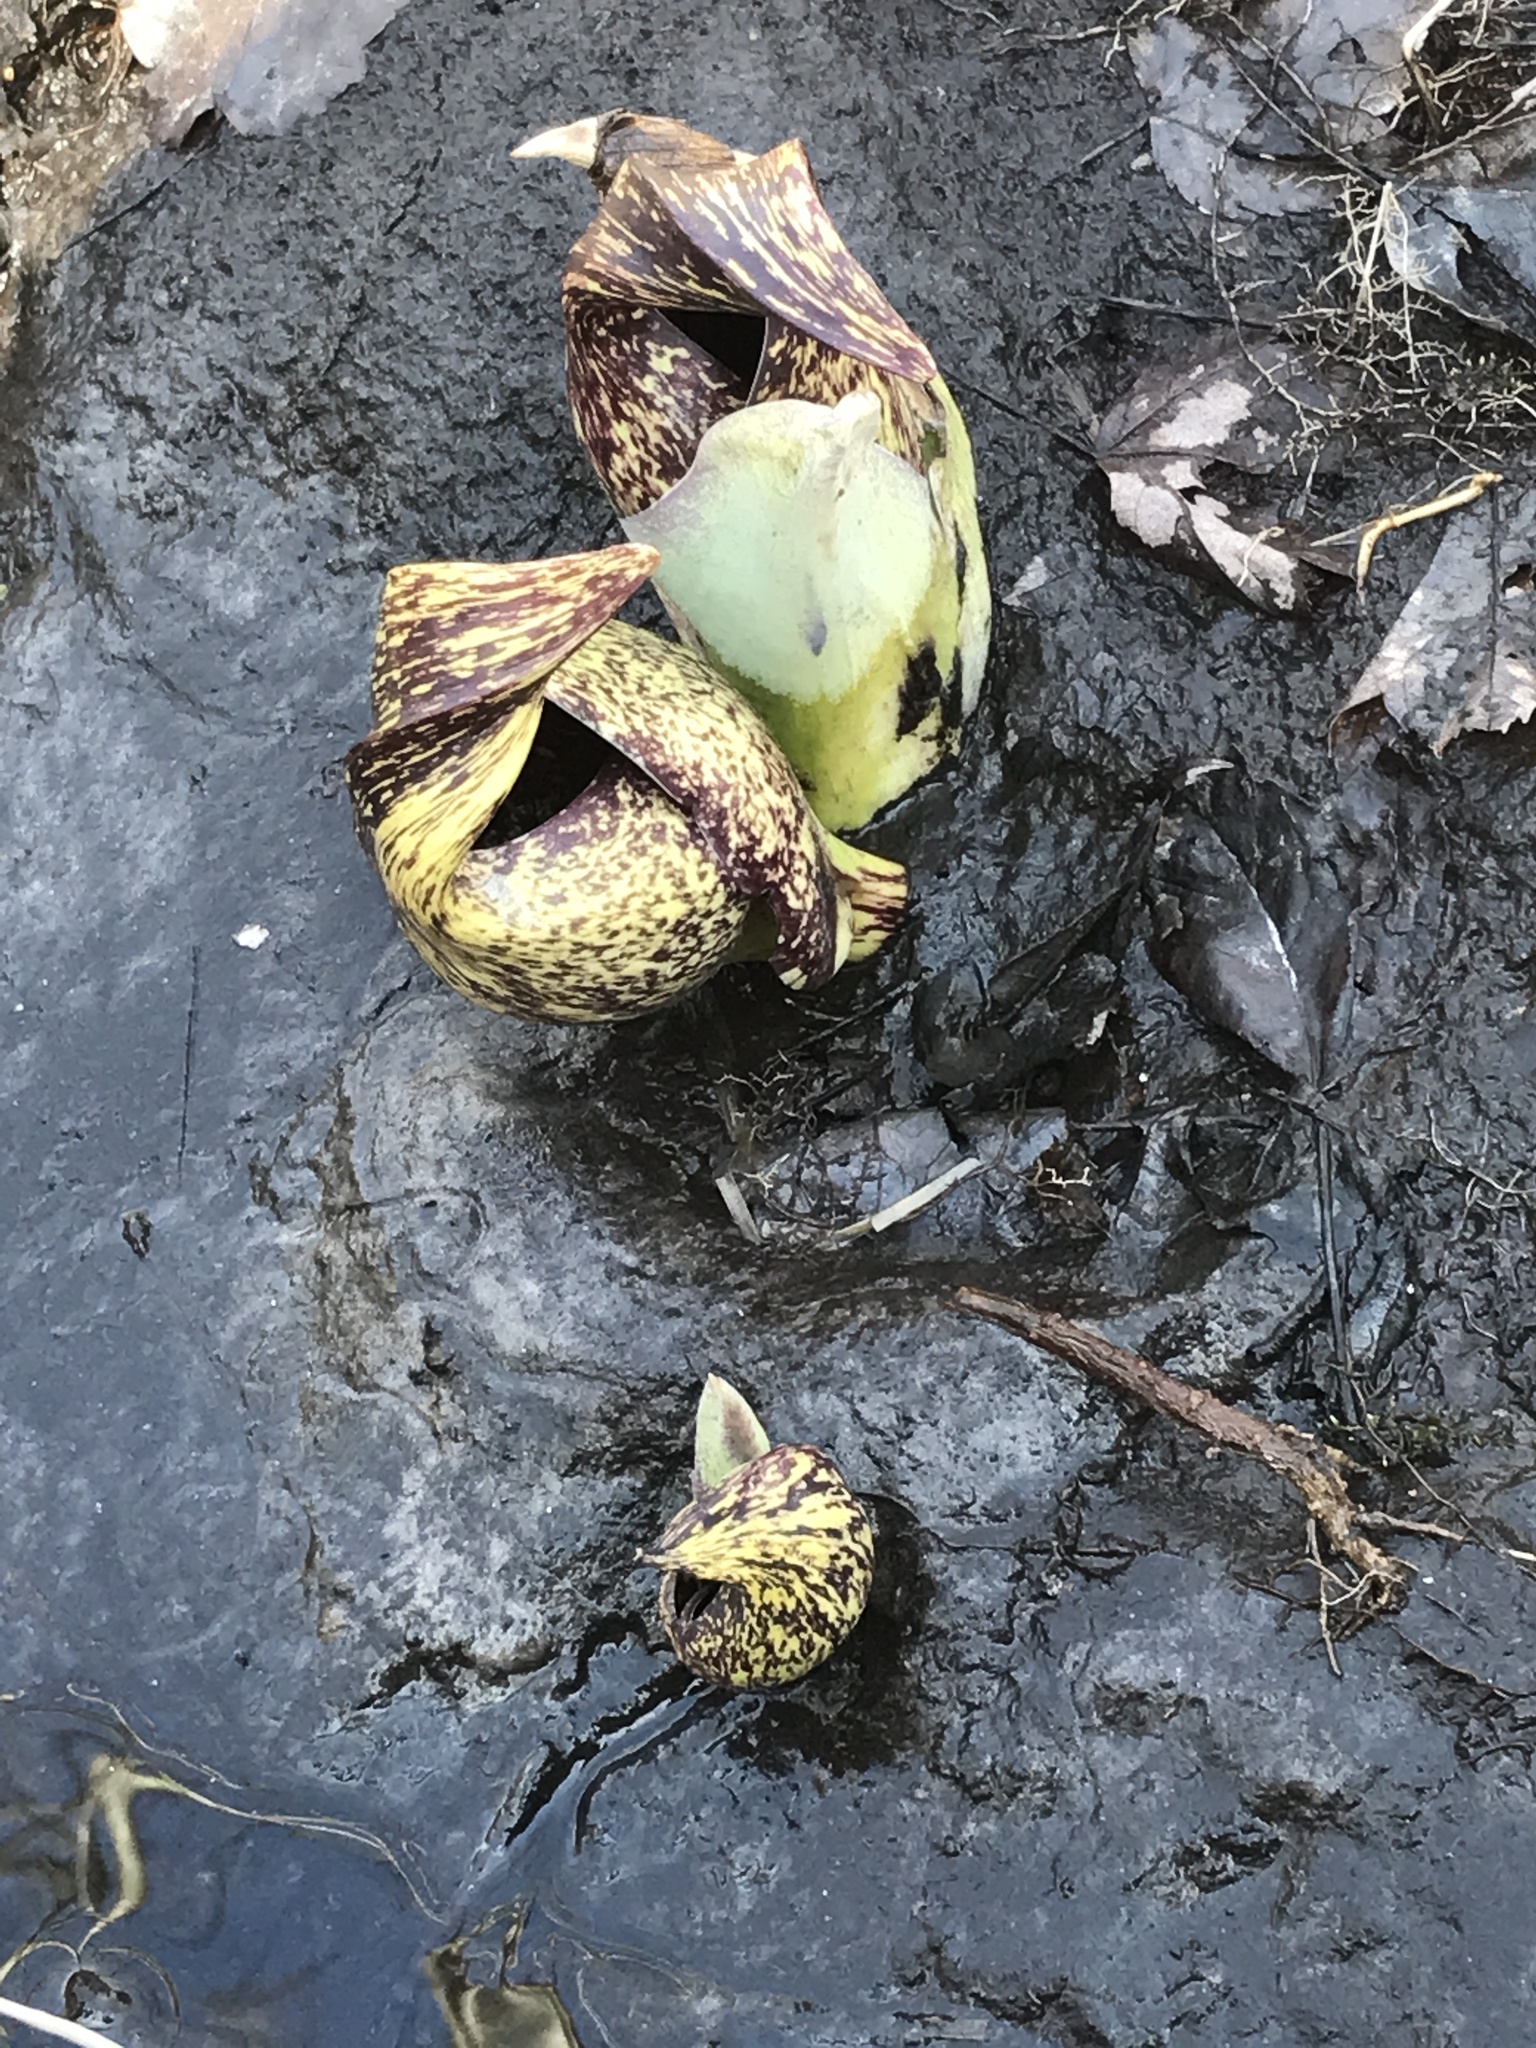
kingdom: Plantae
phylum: Tracheophyta
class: Liliopsida
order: Alismatales
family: Araceae
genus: Symplocarpus
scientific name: Symplocarpus foetidus
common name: Eastern skunk cabbage
